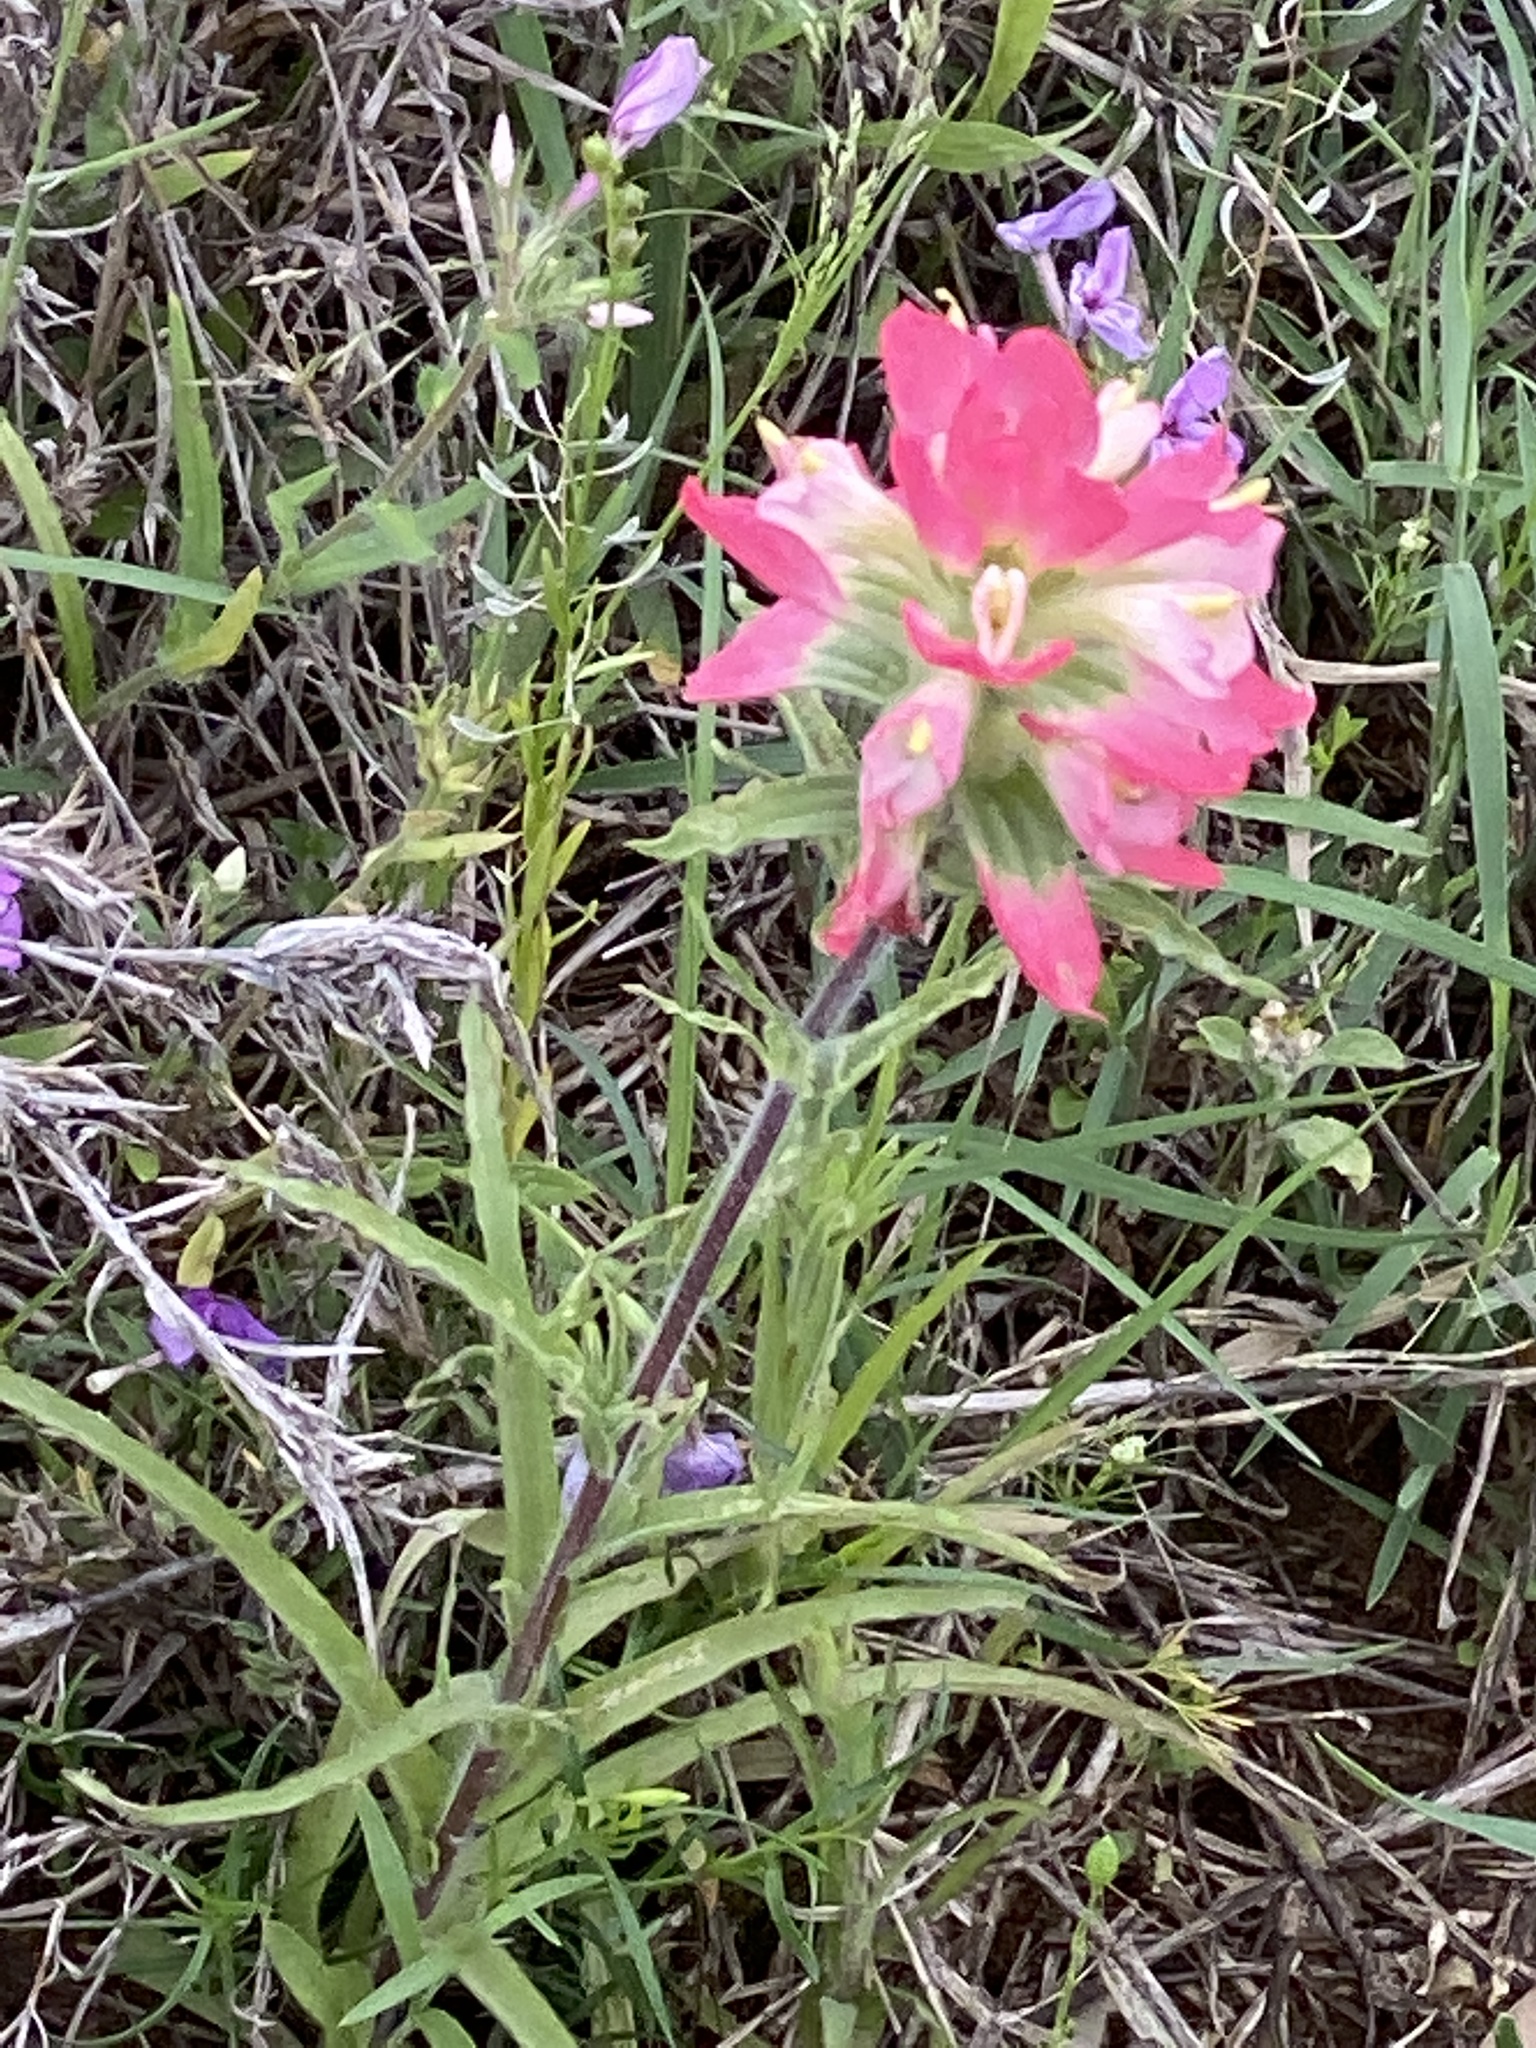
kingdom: Plantae
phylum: Tracheophyta
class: Magnoliopsida
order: Lamiales
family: Orobanchaceae
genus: Castilleja
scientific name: Castilleja indivisa
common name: Texas paintbrush
